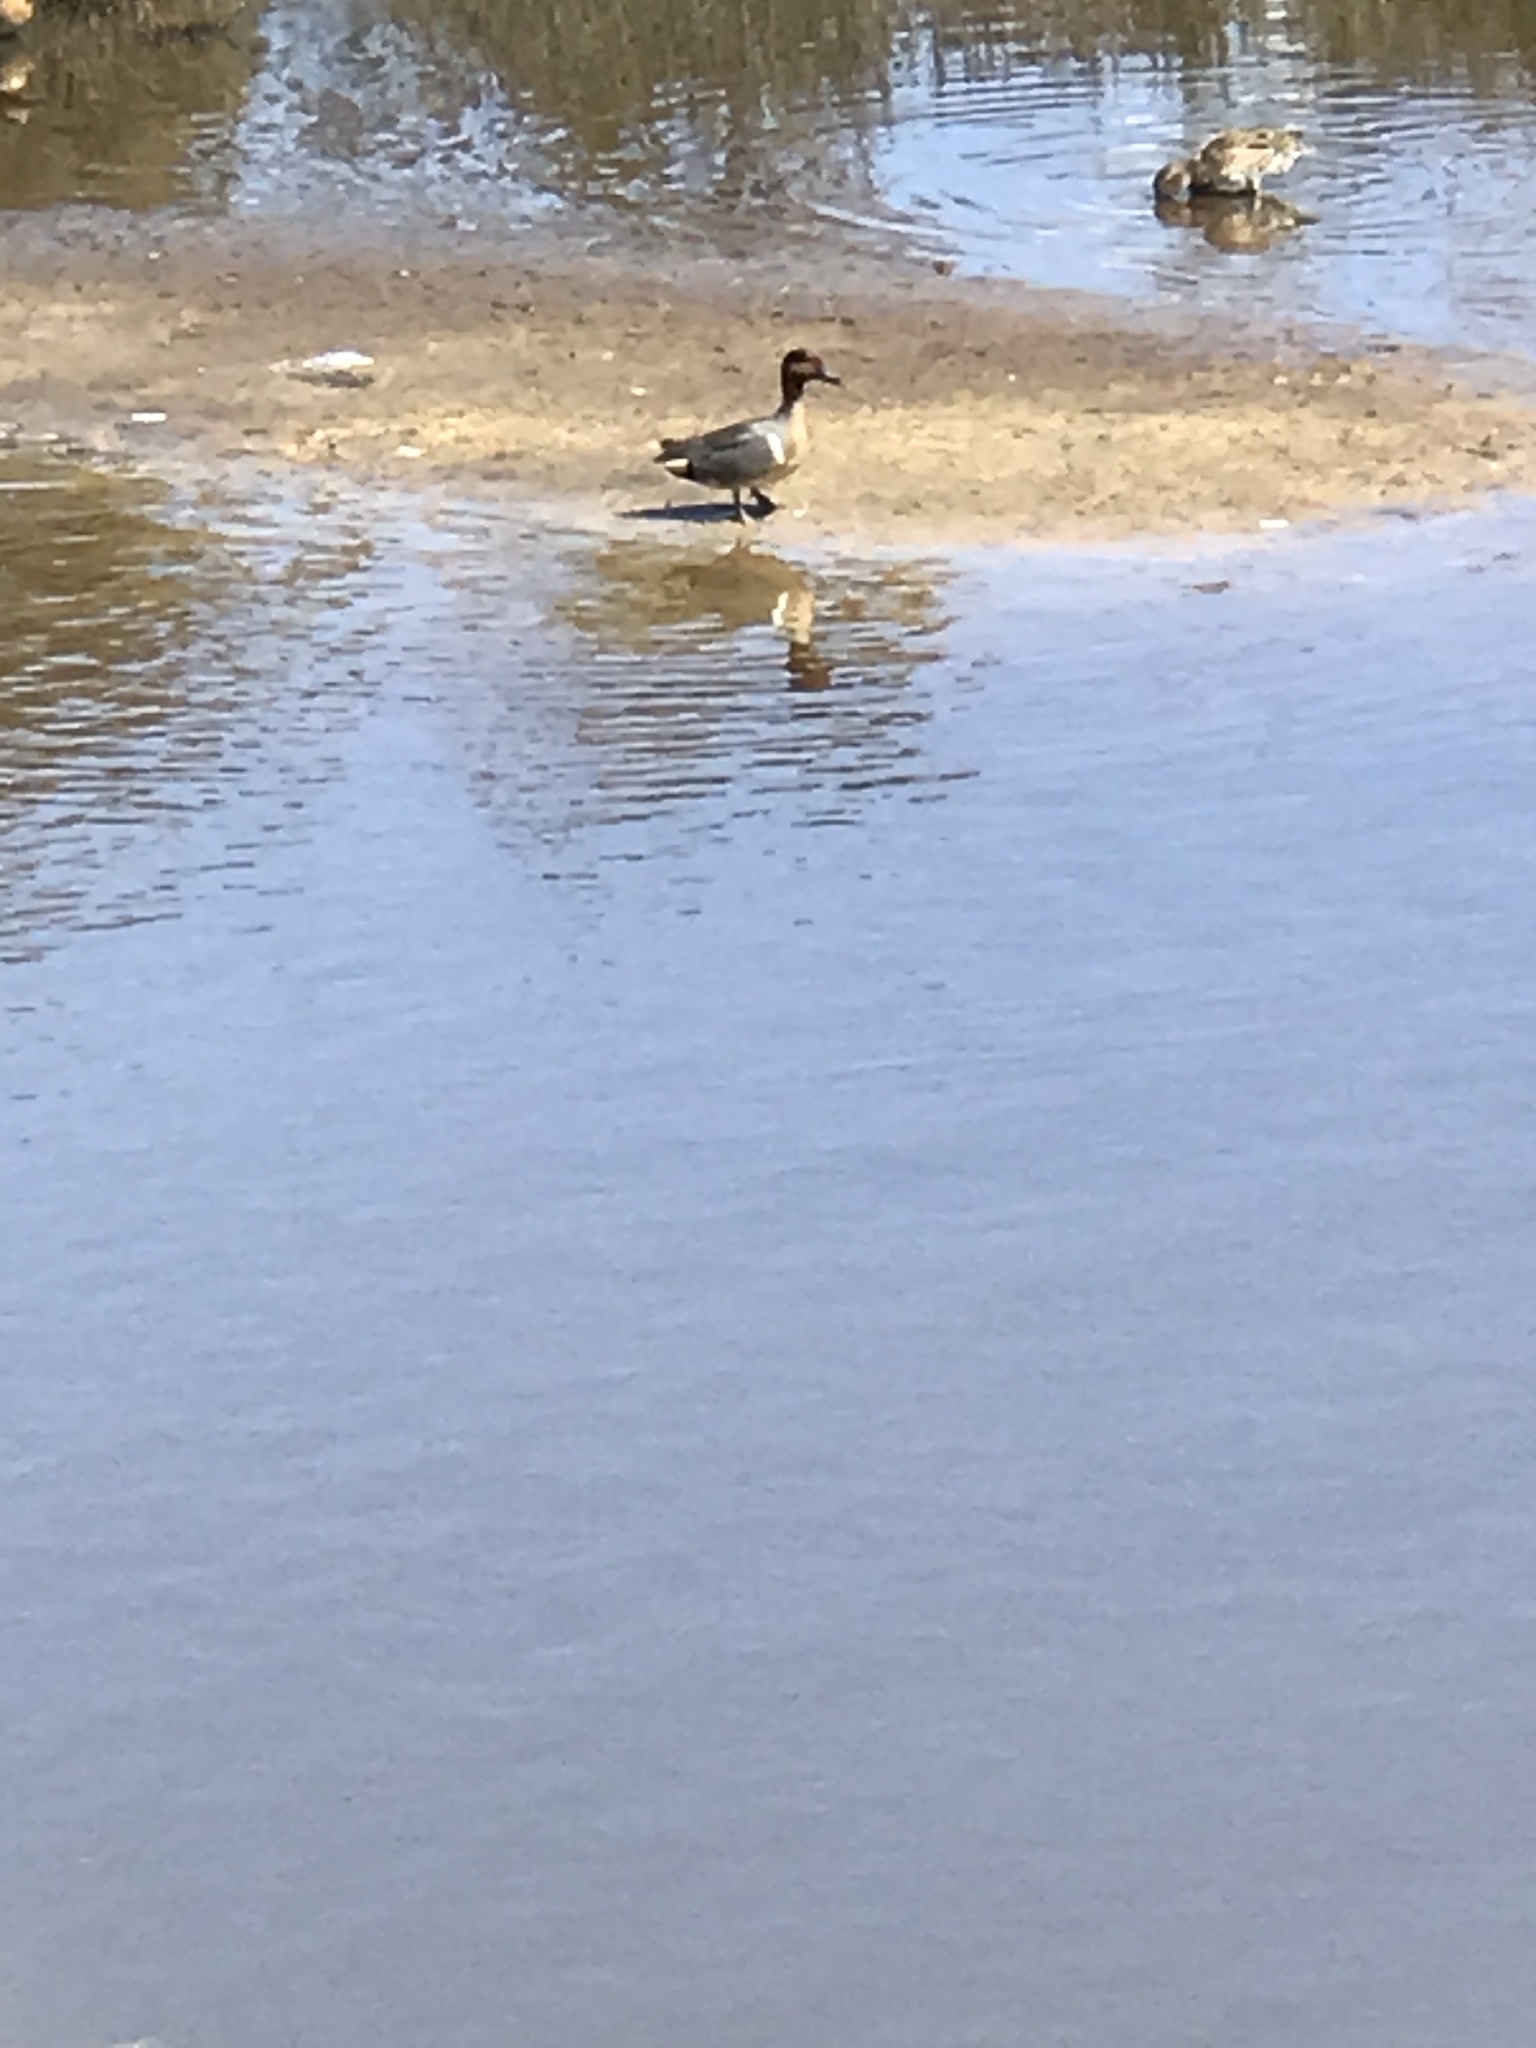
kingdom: Animalia
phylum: Chordata
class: Aves
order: Anseriformes
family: Anatidae
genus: Anas
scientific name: Anas crecca
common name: Eurasian teal
